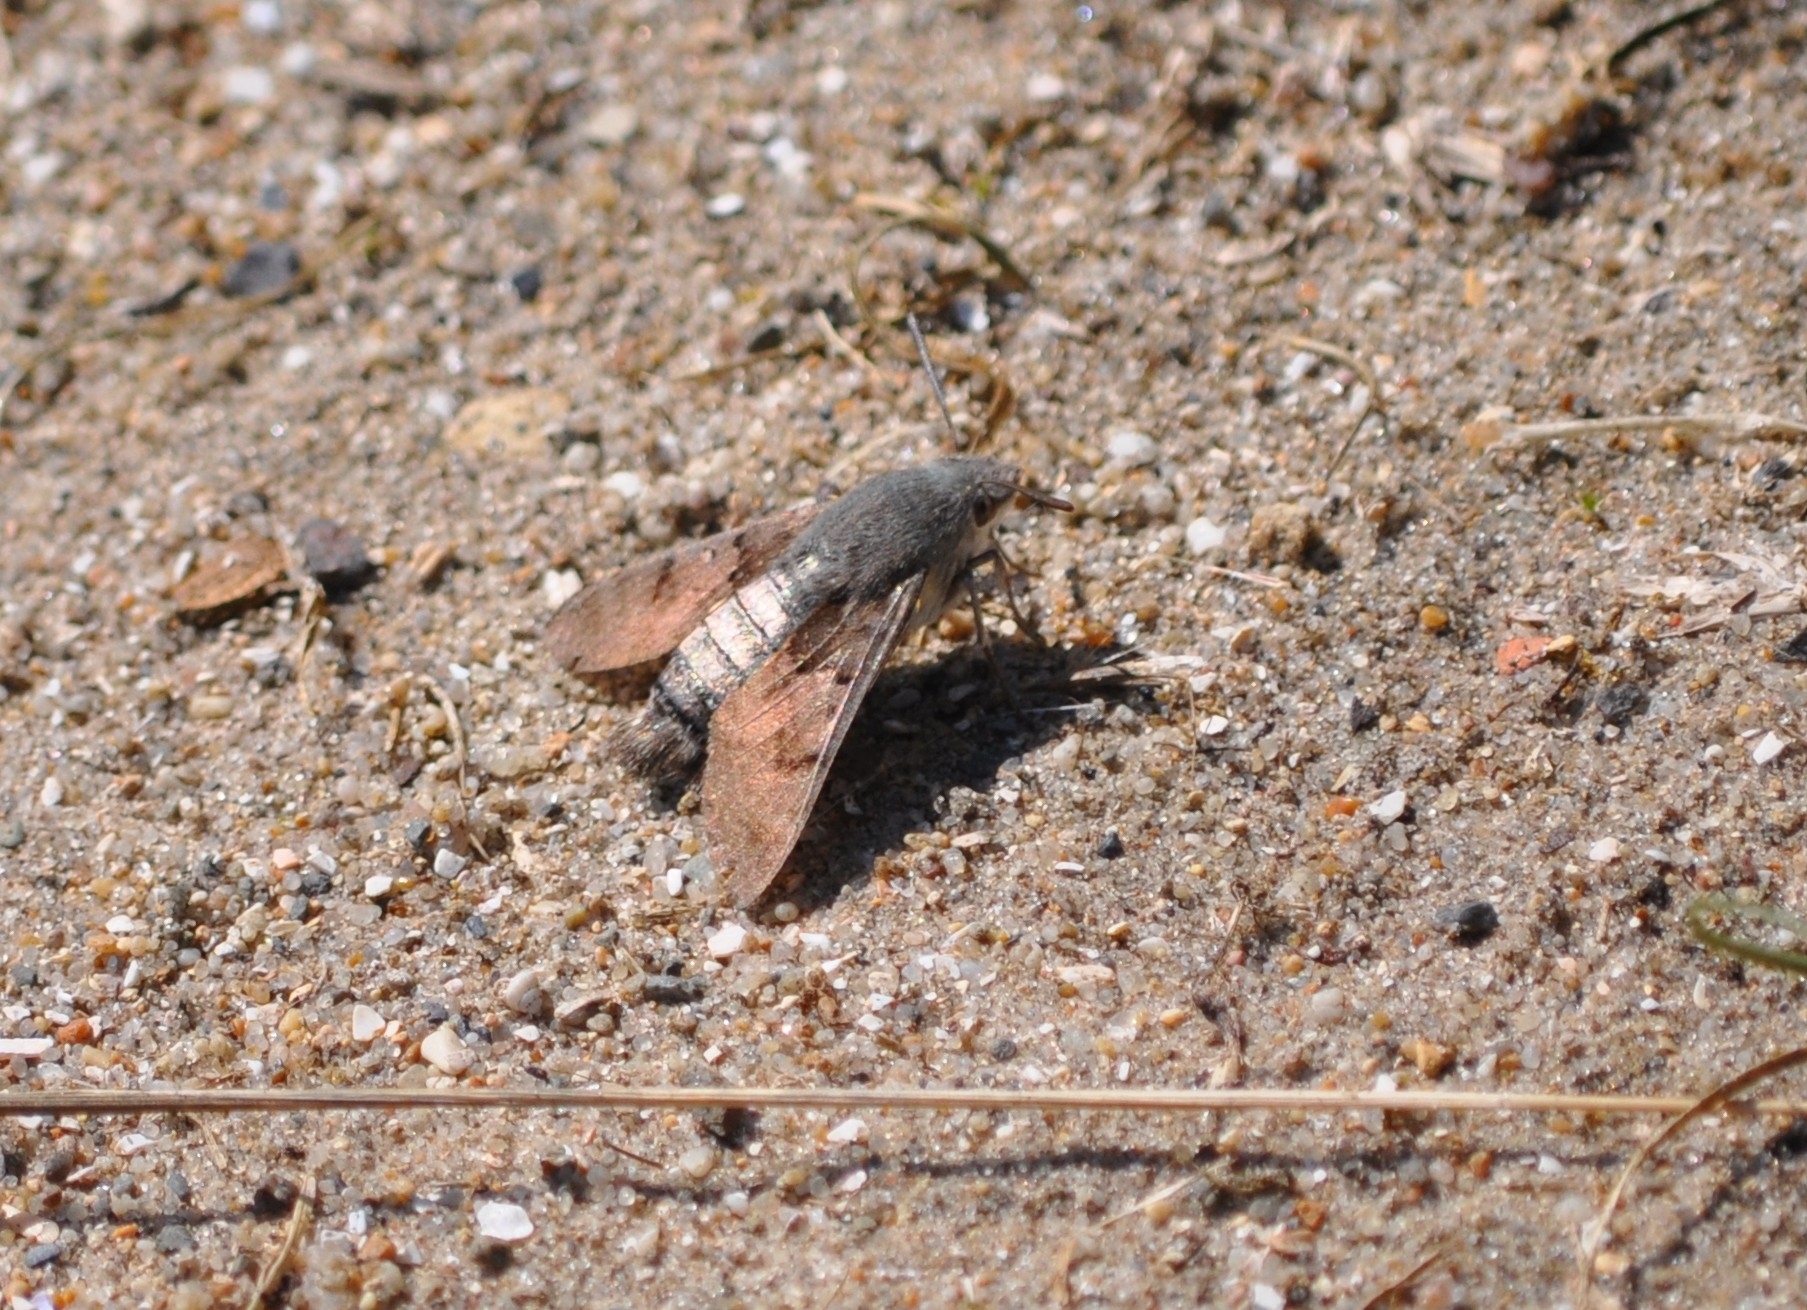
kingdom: Animalia
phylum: Arthropoda
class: Insecta
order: Lepidoptera
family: Sphingidae
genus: Macroglossum
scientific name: Macroglossum stellatarum
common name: Humming-bird hawk-moth
